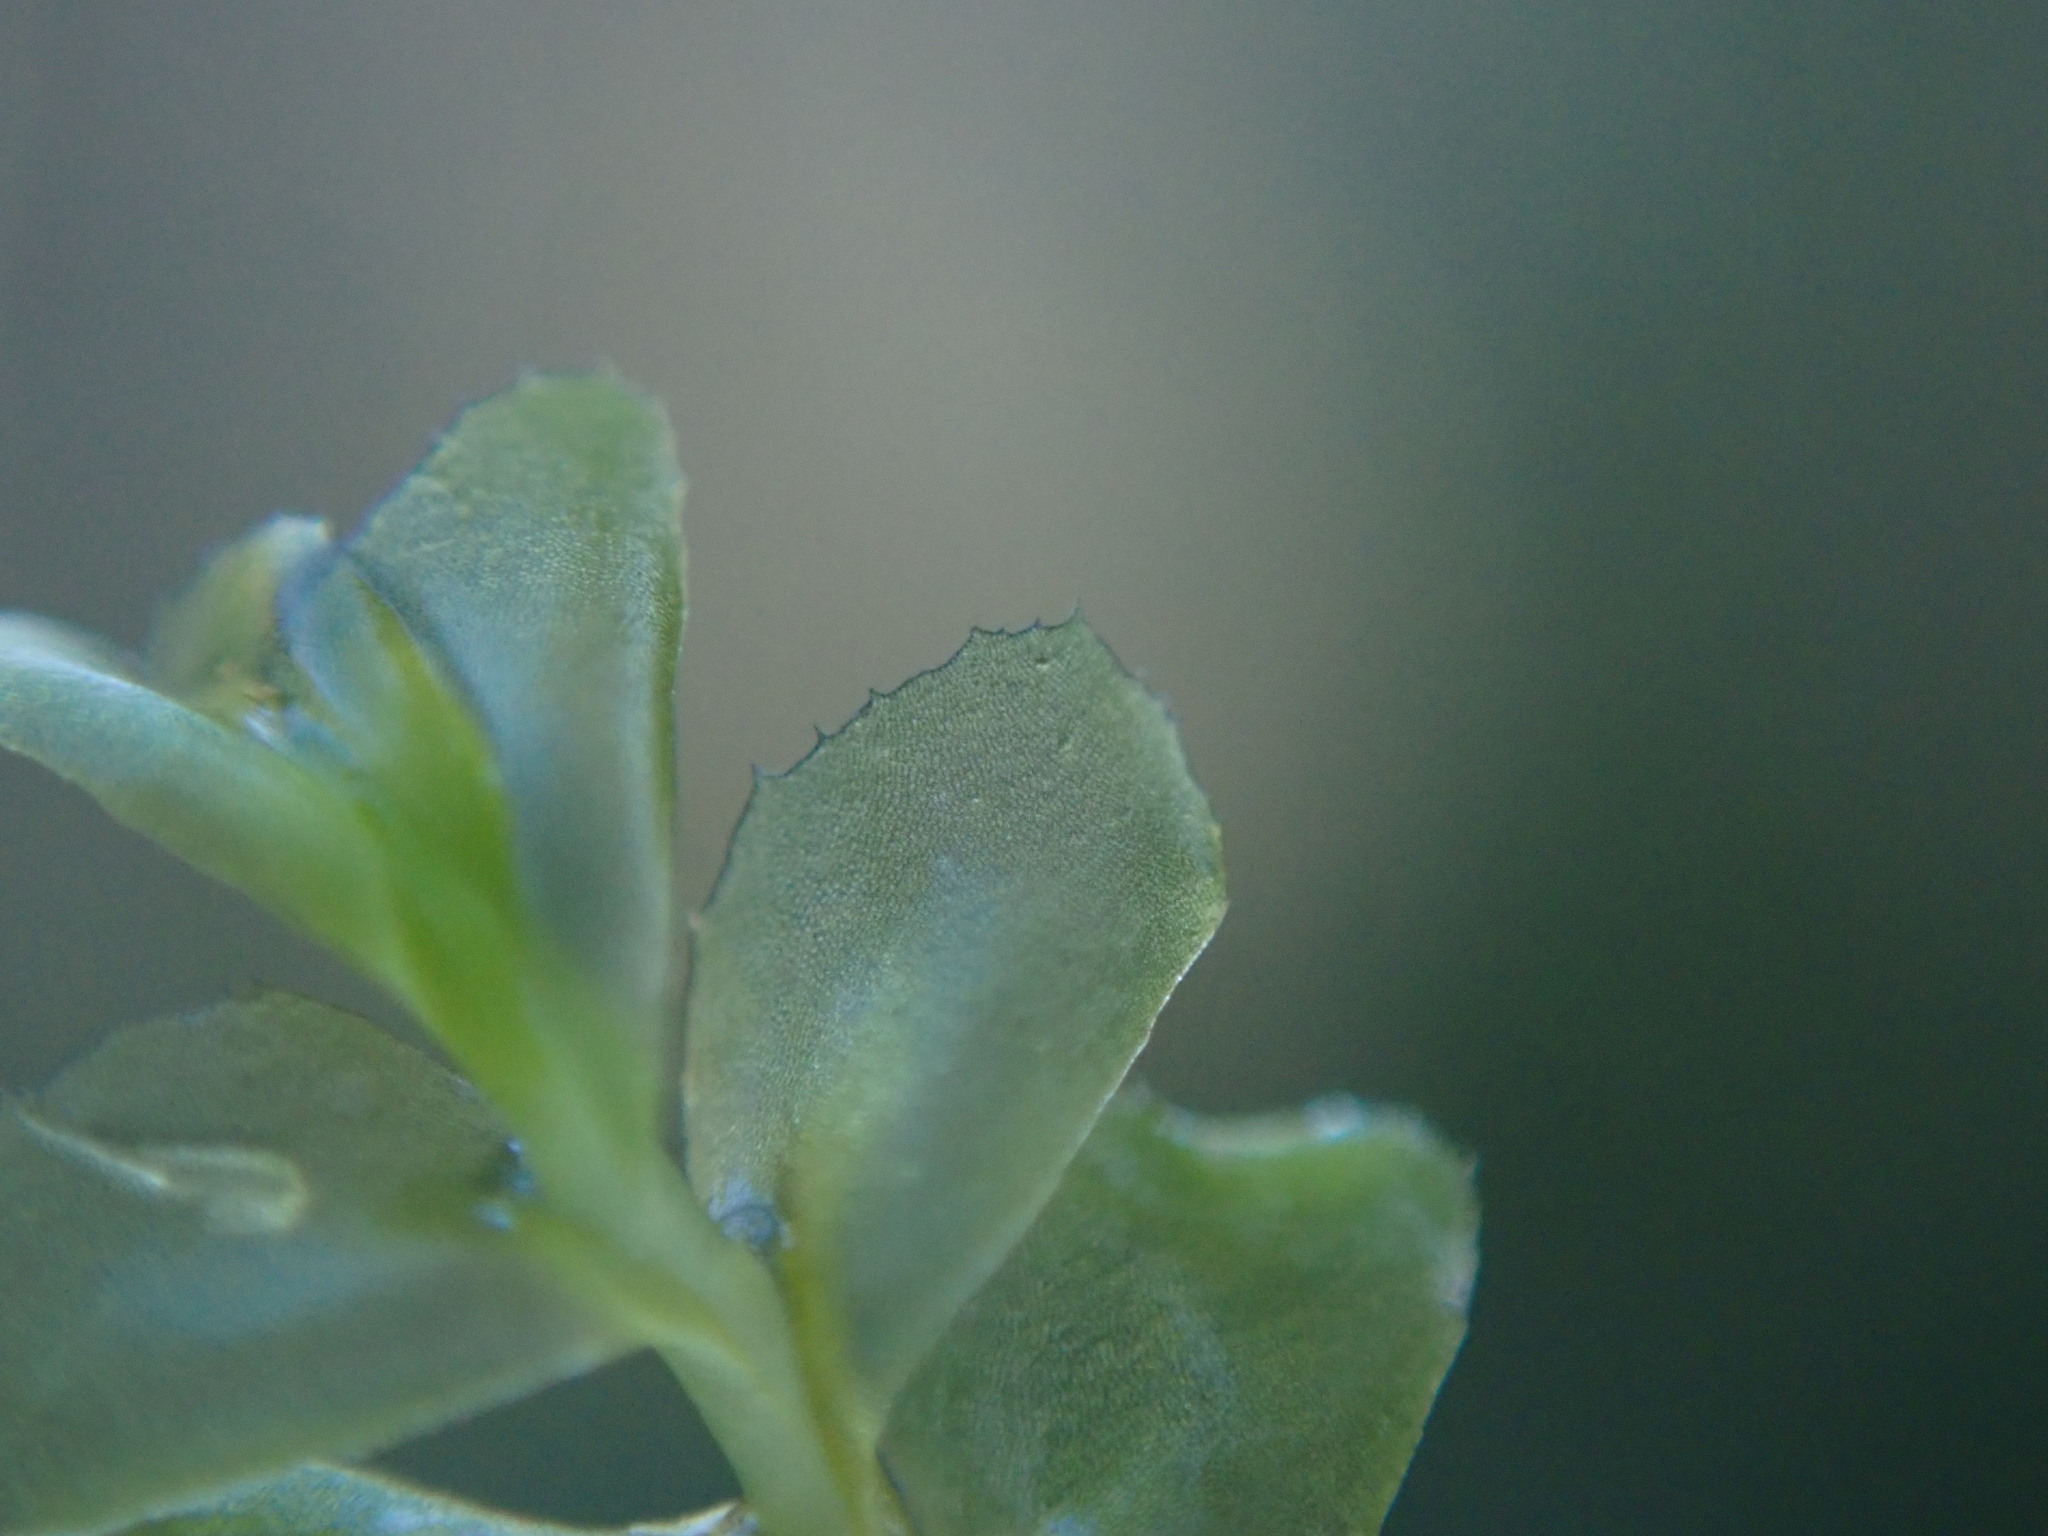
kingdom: Plantae
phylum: Marchantiophyta
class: Jungermanniopsida
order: Jungermanniales
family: Plagiochilaceae
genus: Plagiochila
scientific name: Plagiochila porelloides
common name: Lesser featherwort
